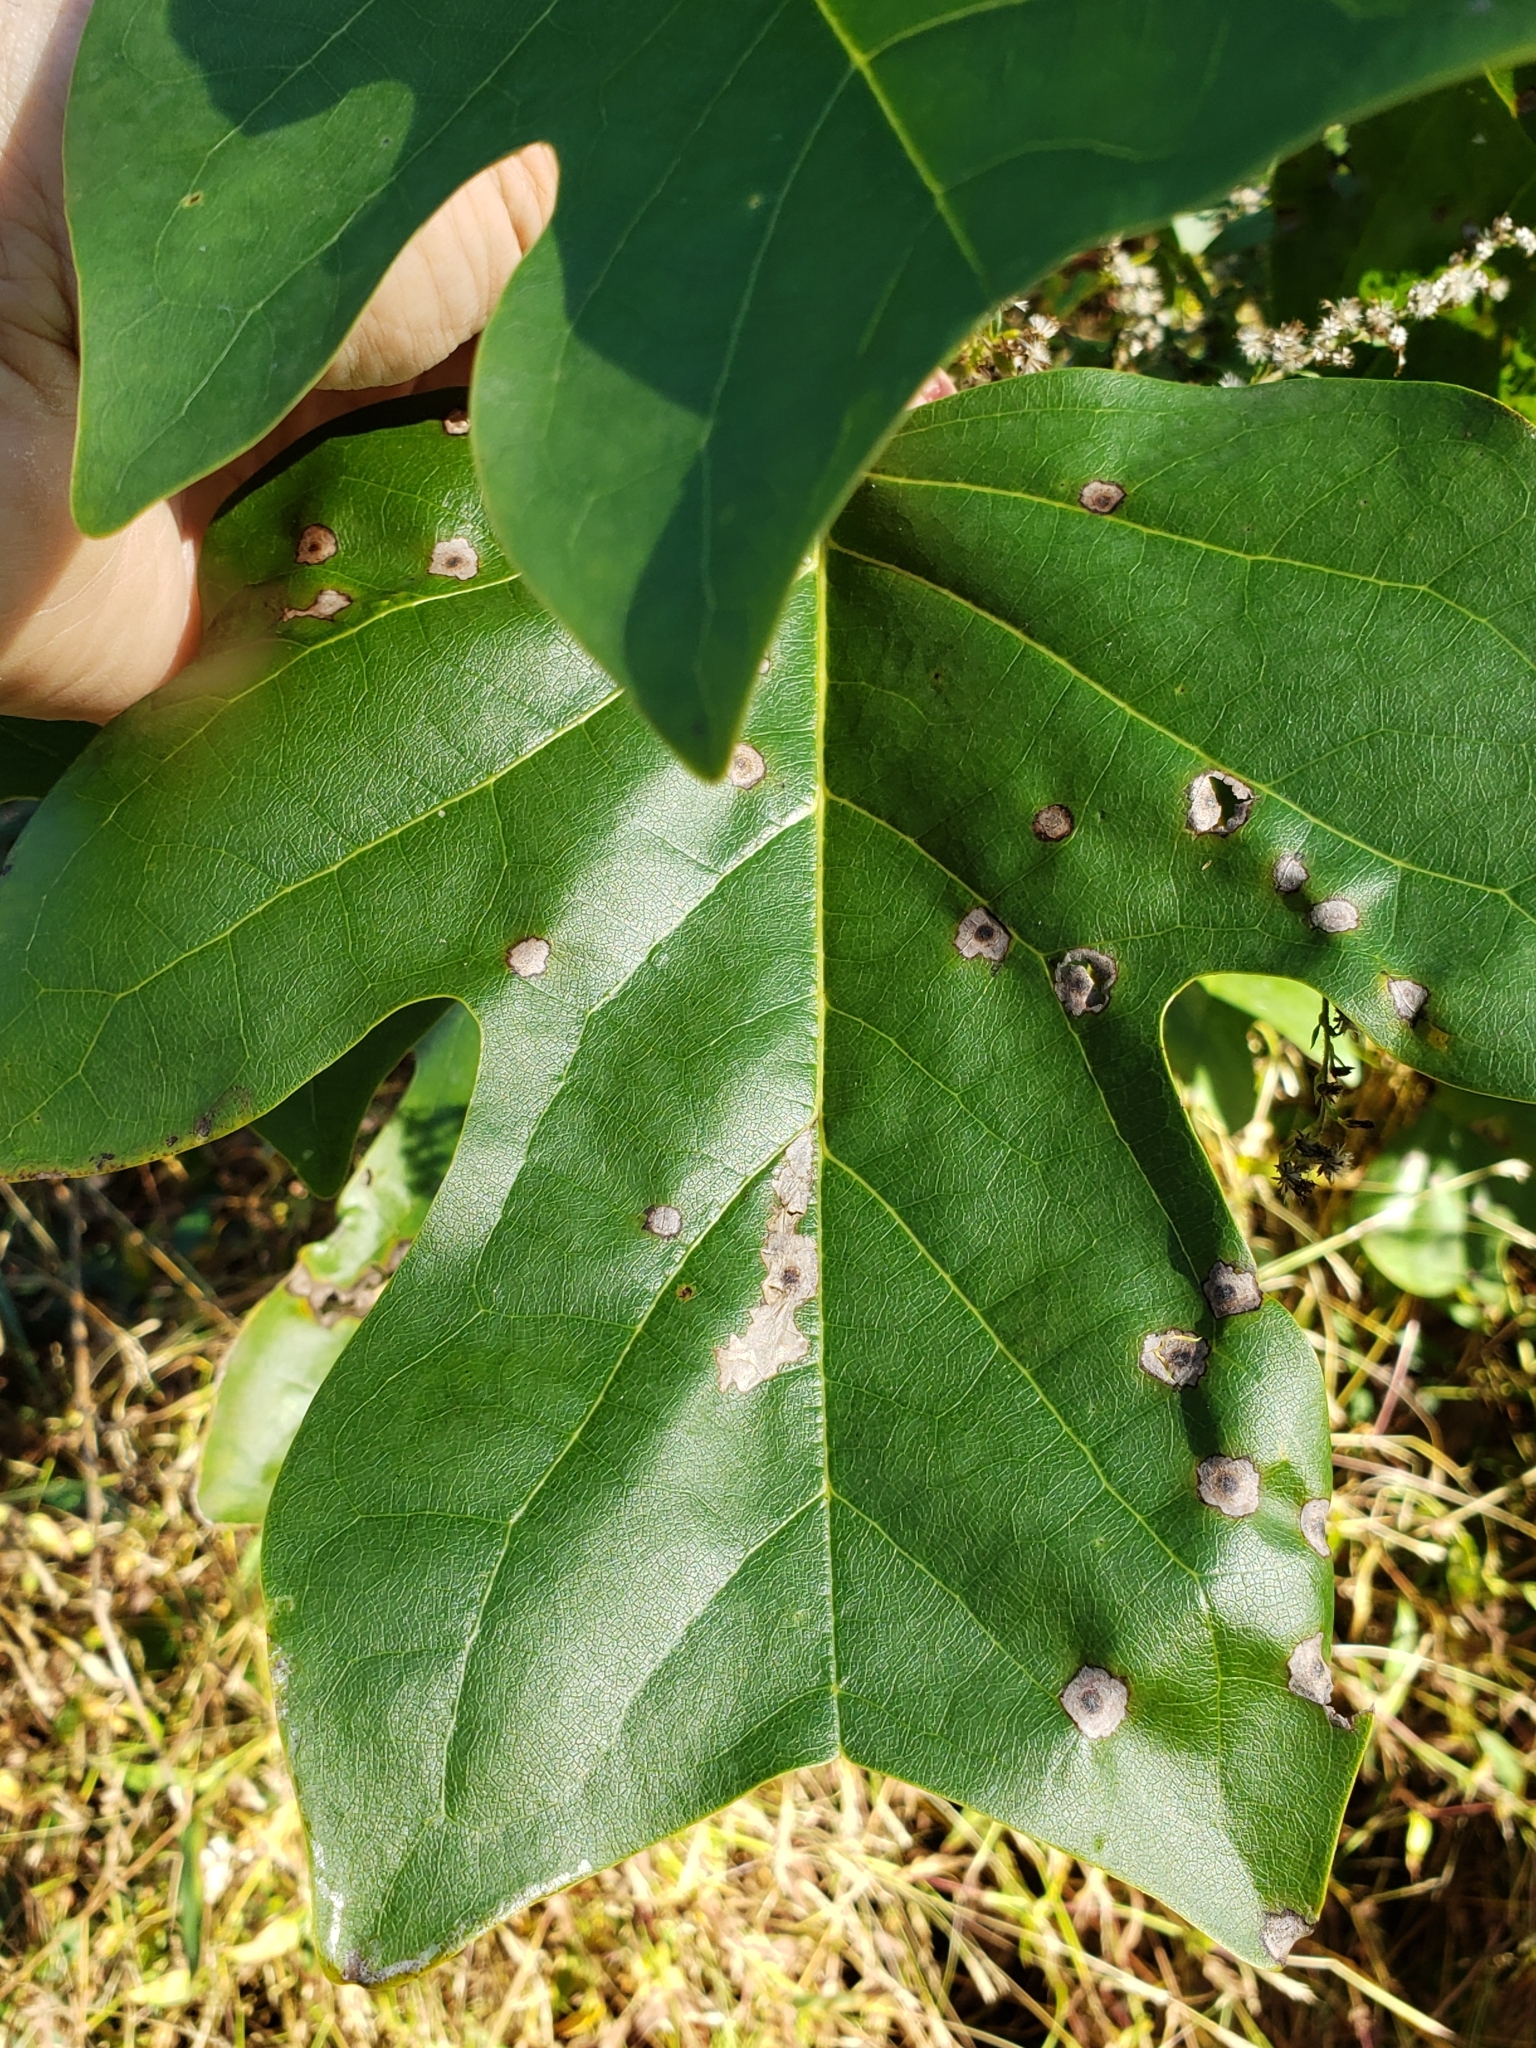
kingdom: Animalia
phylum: Arthropoda
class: Insecta
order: Diptera
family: Cecidomyiidae
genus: Resseliella
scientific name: Resseliella liriodendri
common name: Tulip tree leaf spot gall midge
